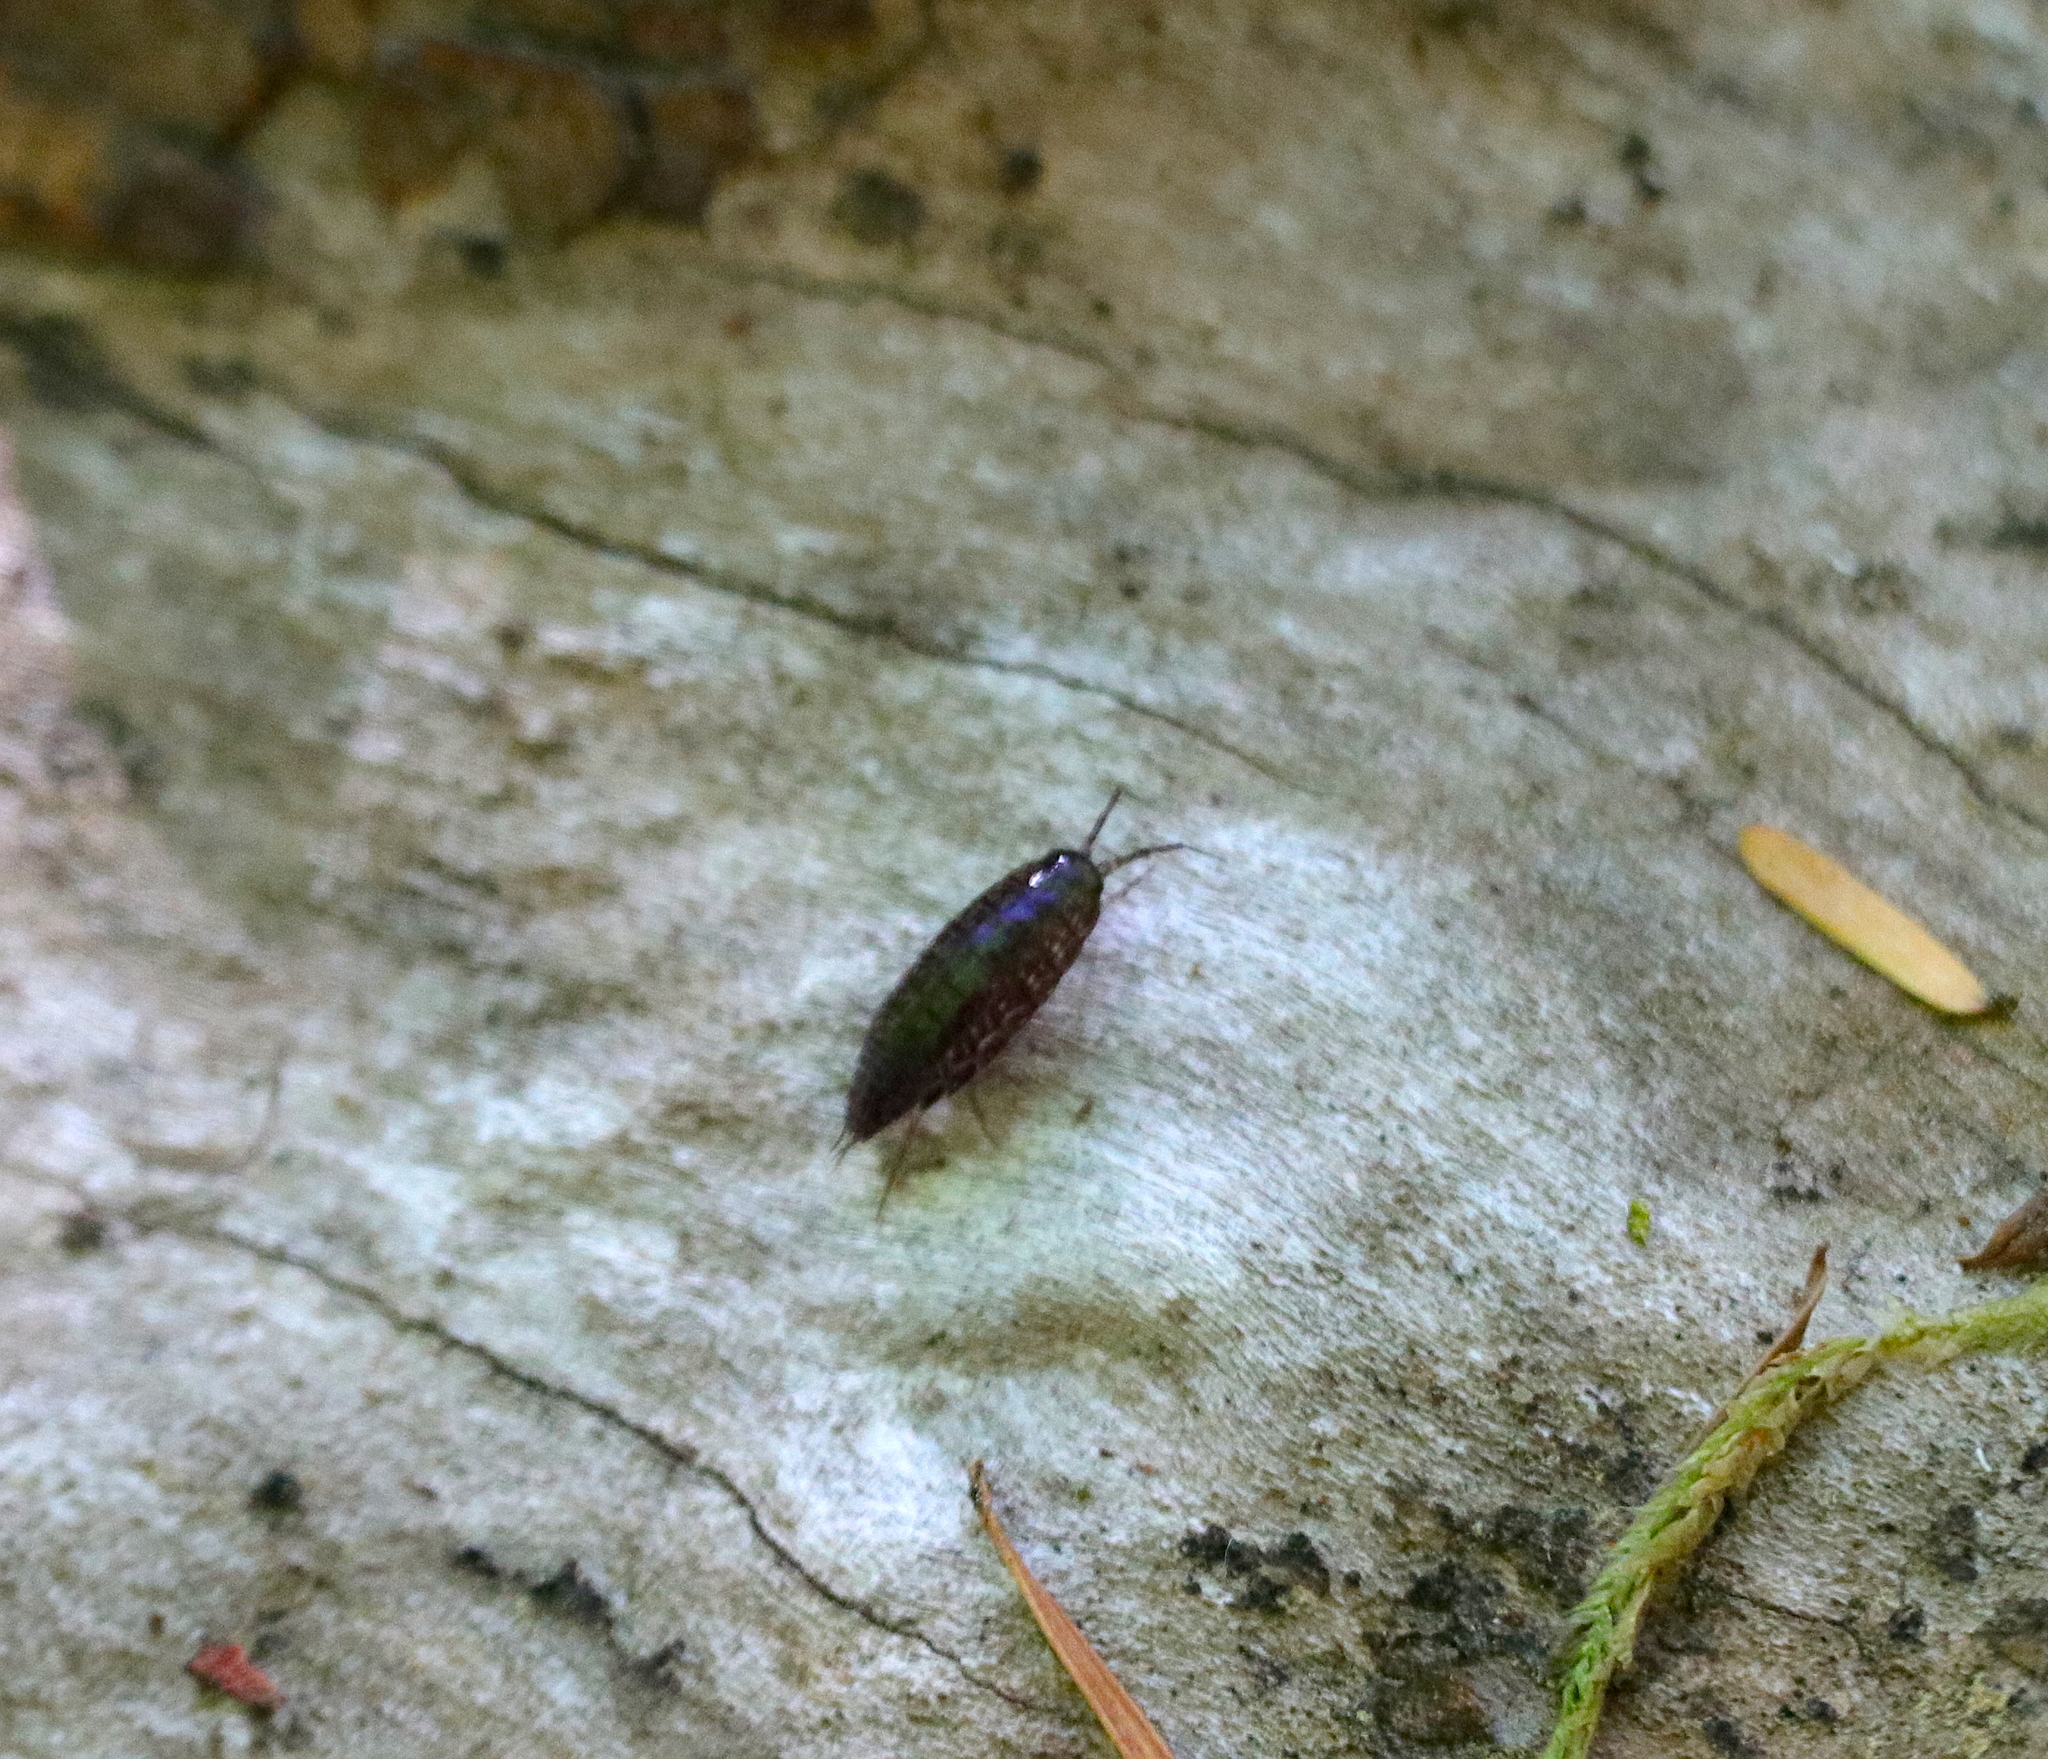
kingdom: Animalia
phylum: Arthropoda
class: Malacostraca
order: Isopoda
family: Ligiidae
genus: Ligidium
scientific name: Ligidium gracile
